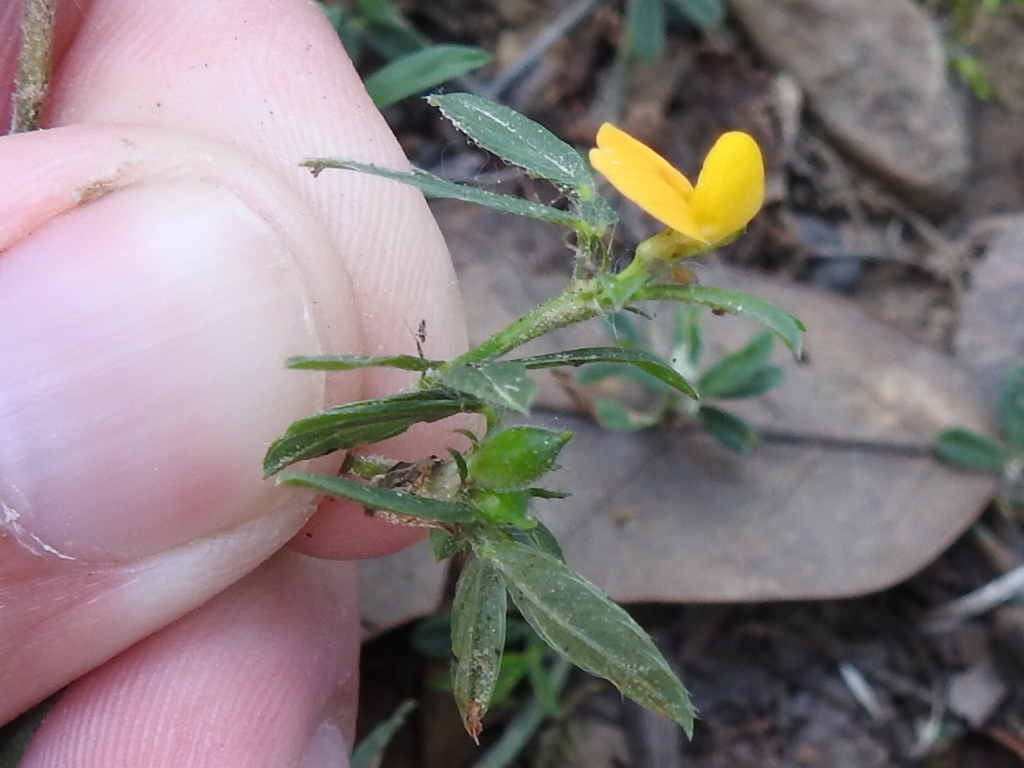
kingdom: Plantae
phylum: Tracheophyta
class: Magnoliopsida
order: Fabales
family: Fabaceae
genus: Stylosanthes
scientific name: Stylosanthes biflora
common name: Two-flower pencil-flower
